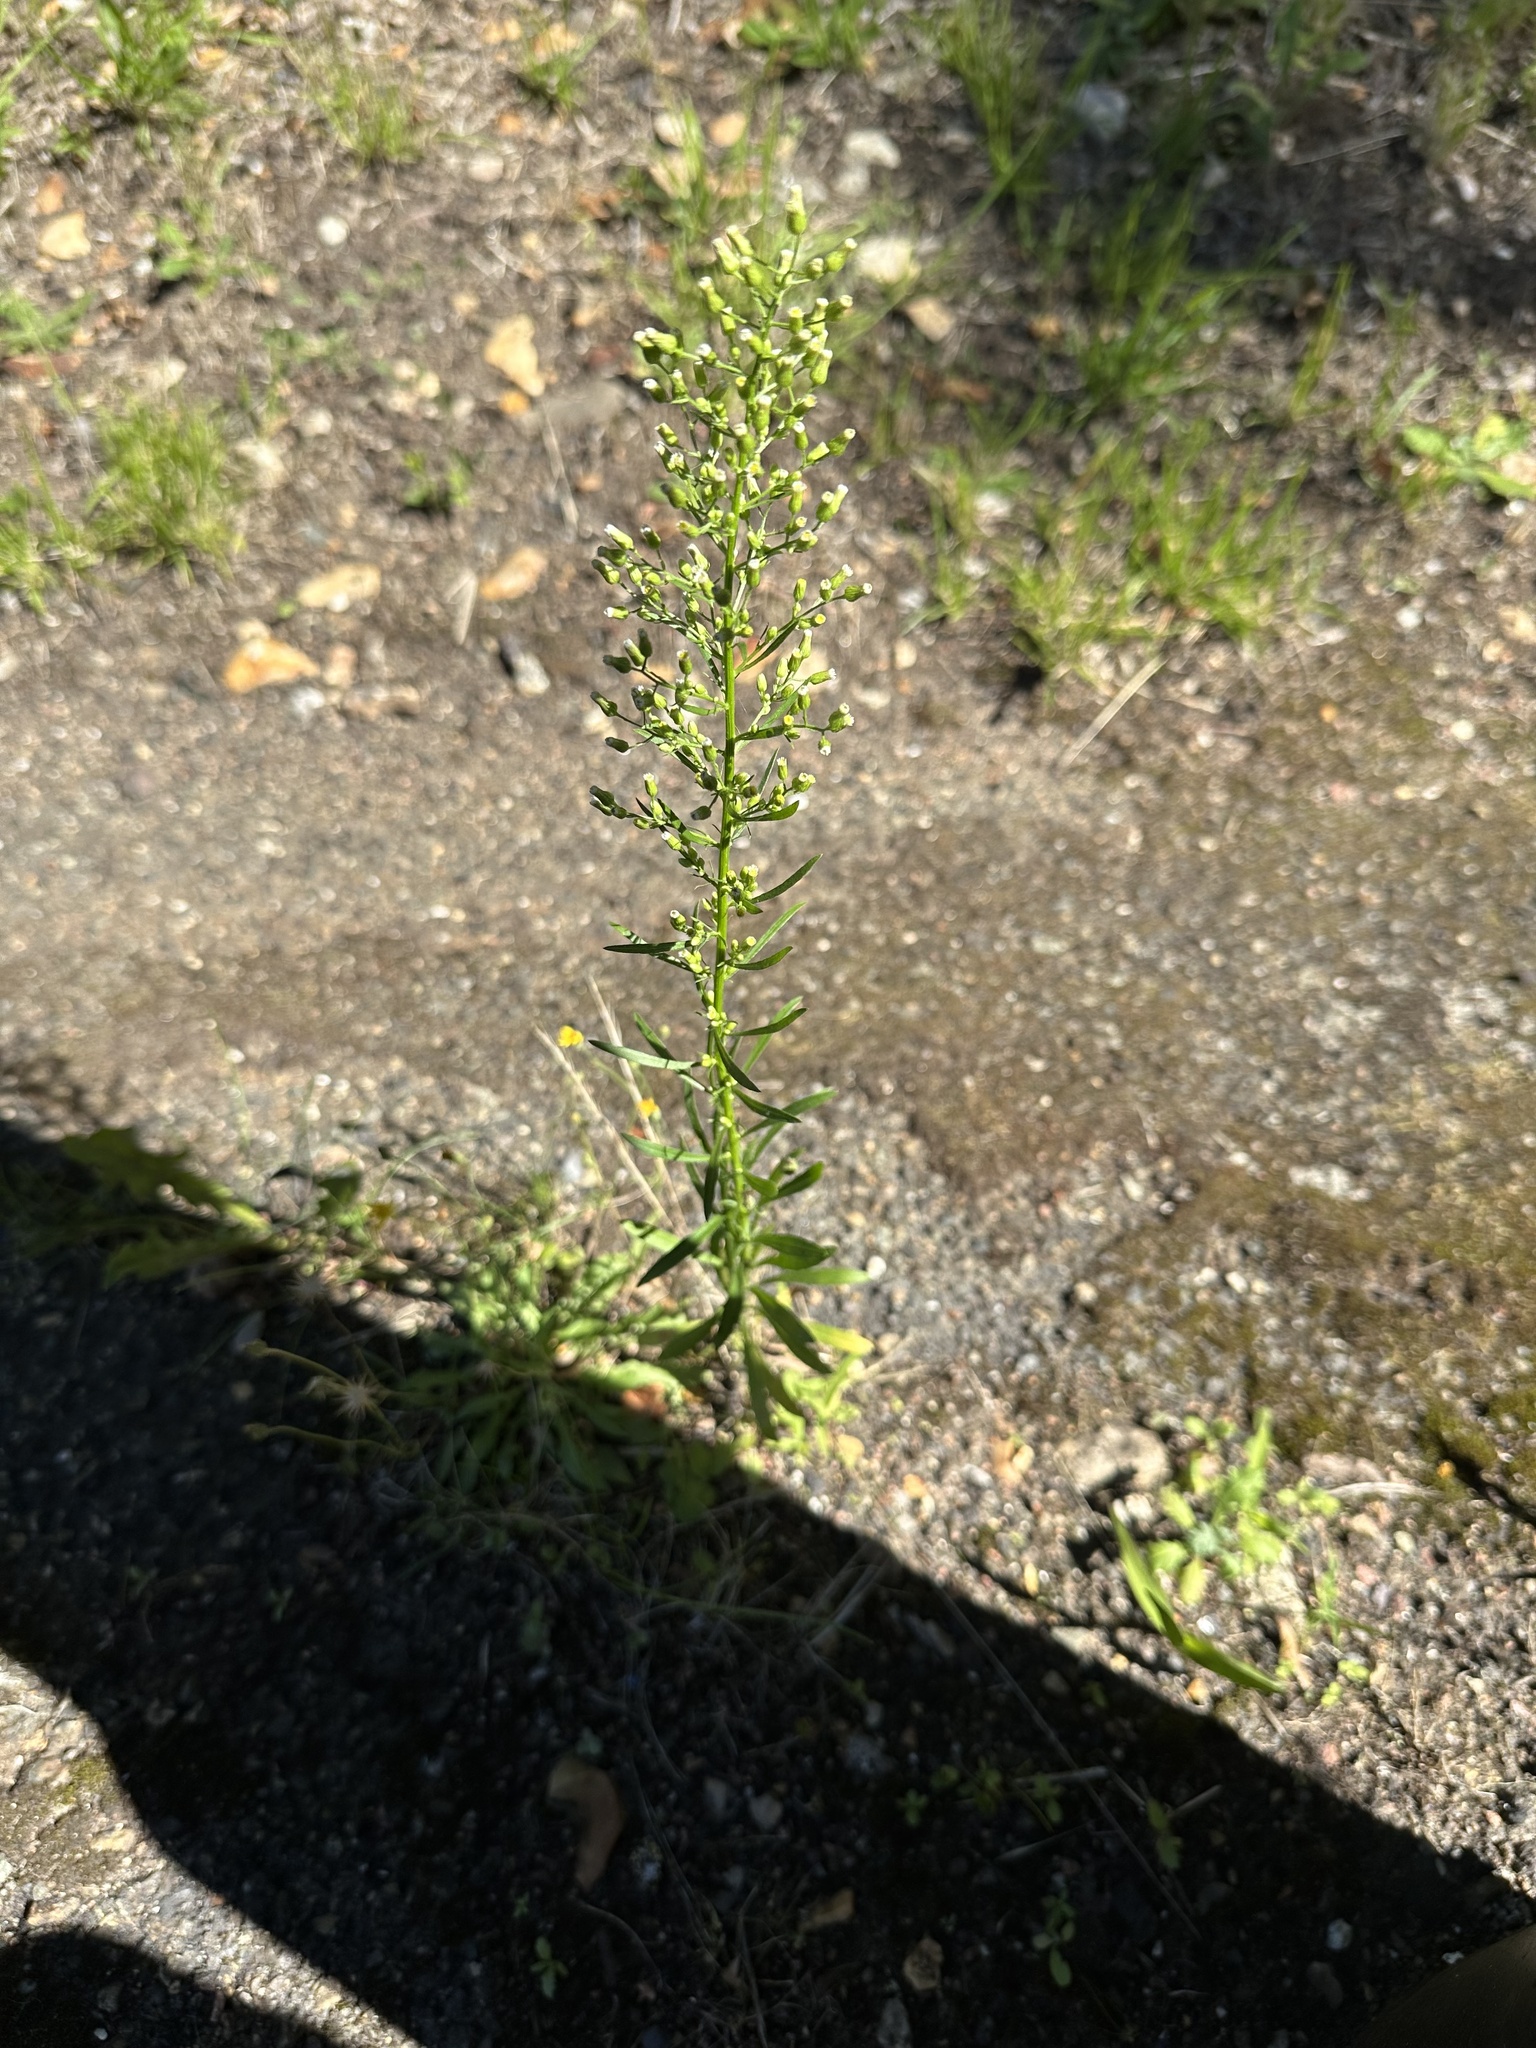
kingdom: Plantae
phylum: Tracheophyta
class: Magnoliopsida
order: Asterales
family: Asteraceae
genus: Erigeron
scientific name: Erigeron canadensis
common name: Canadian fleabane
